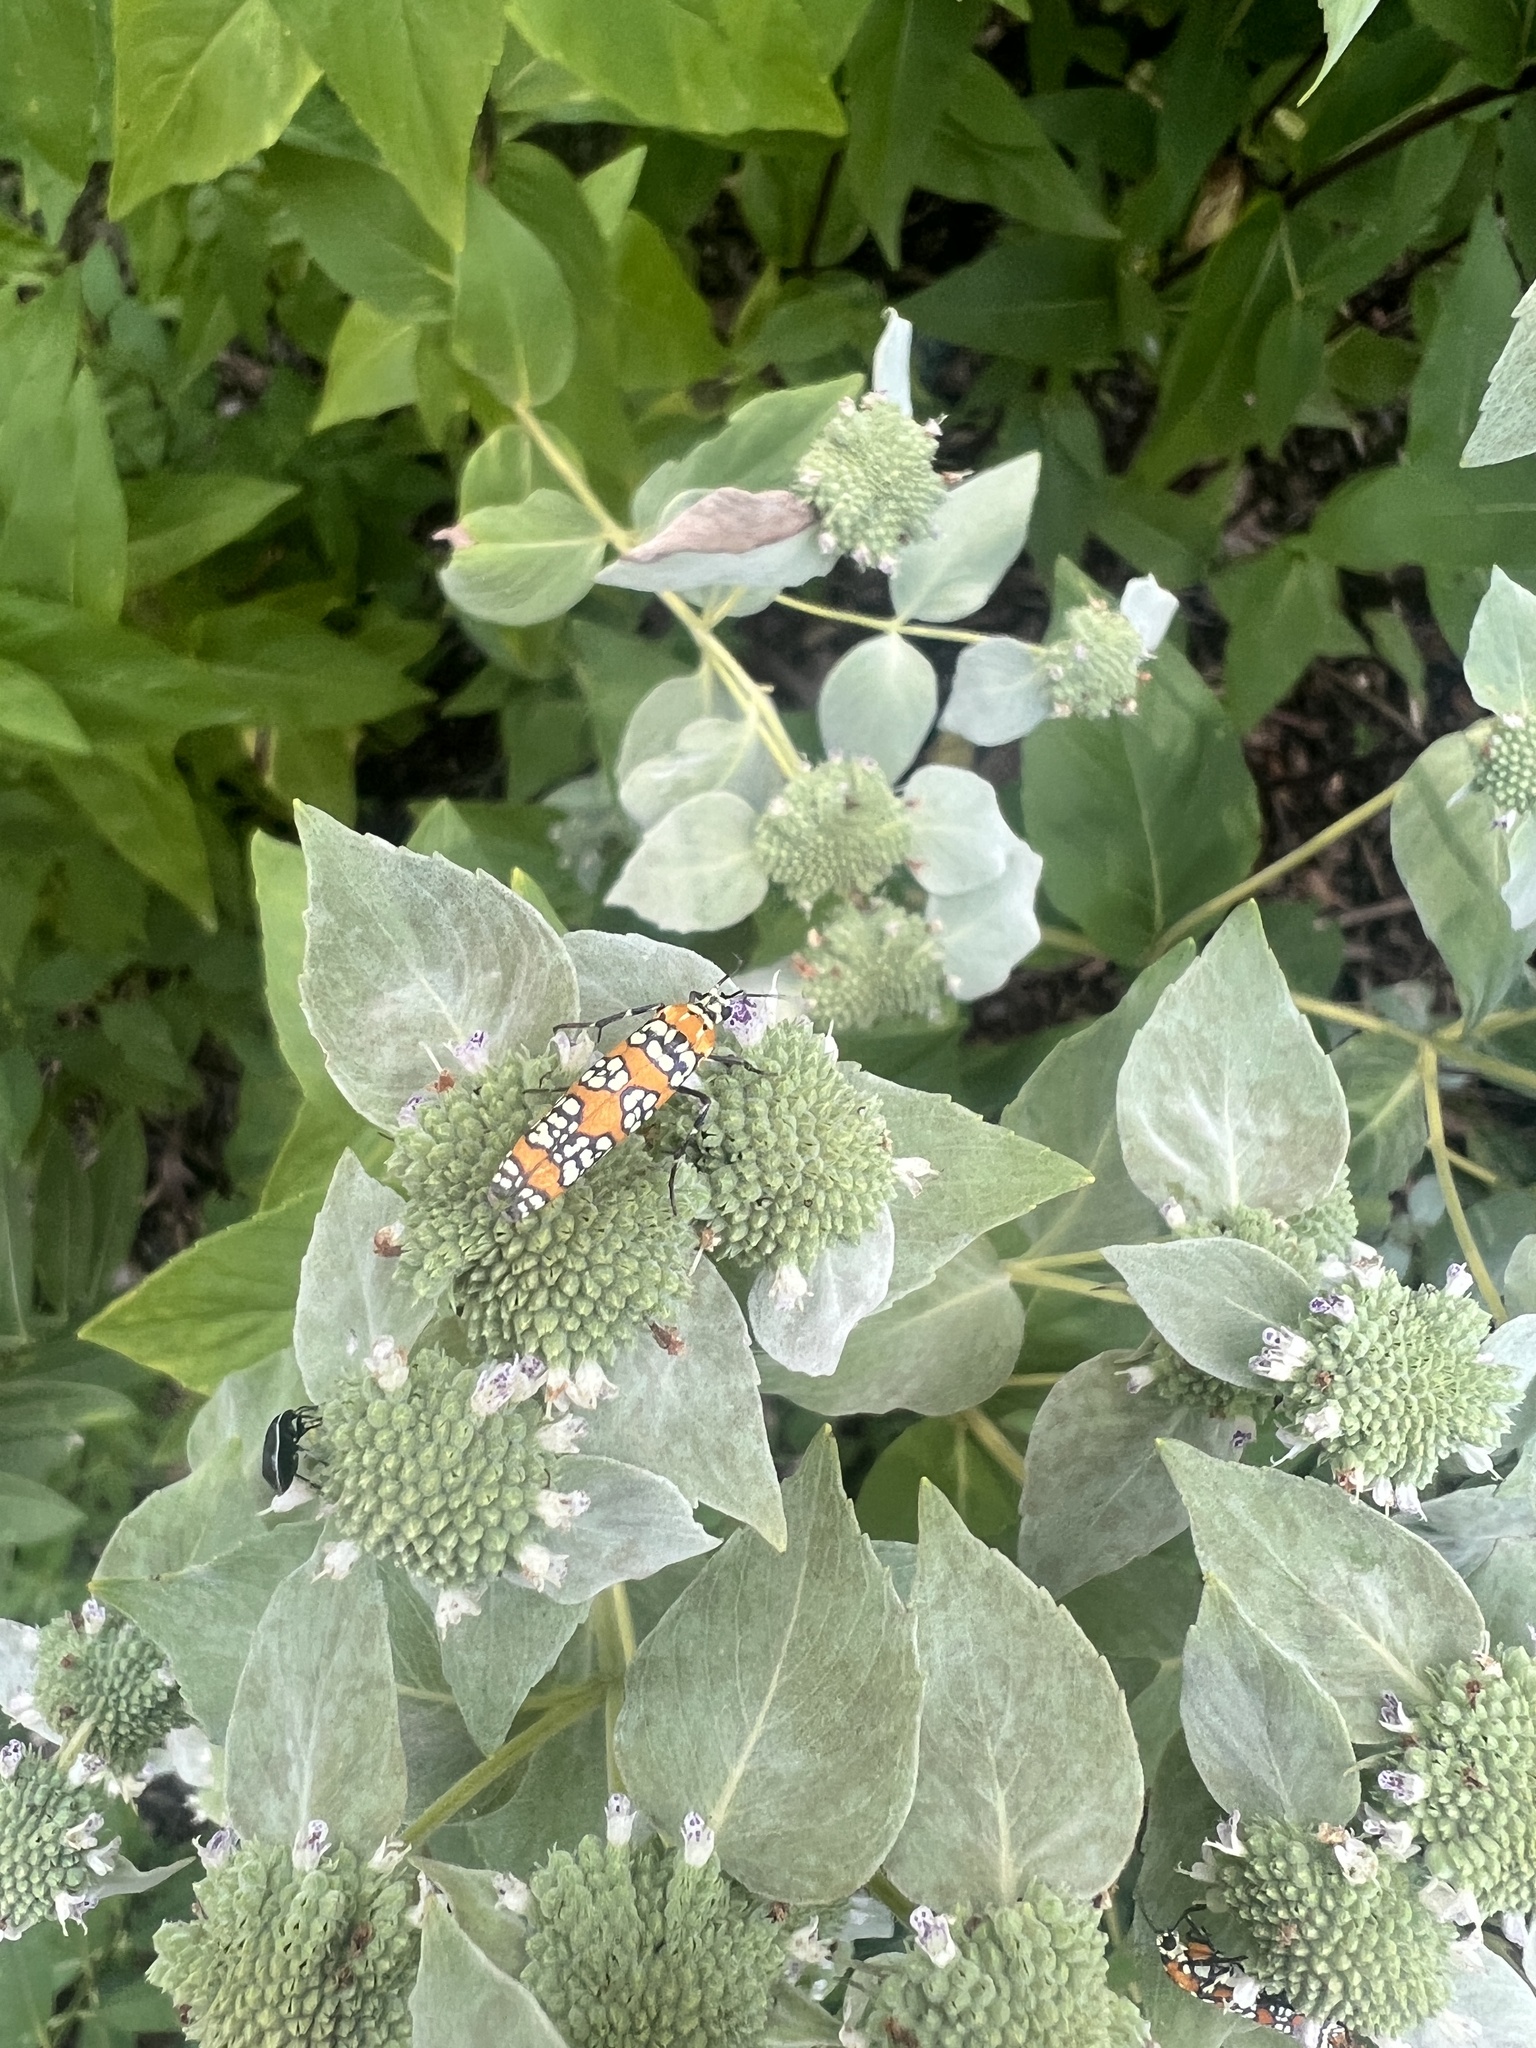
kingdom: Animalia
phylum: Arthropoda
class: Insecta
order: Lepidoptera
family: Attevidae
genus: Atteva
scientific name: Atteva punctella
